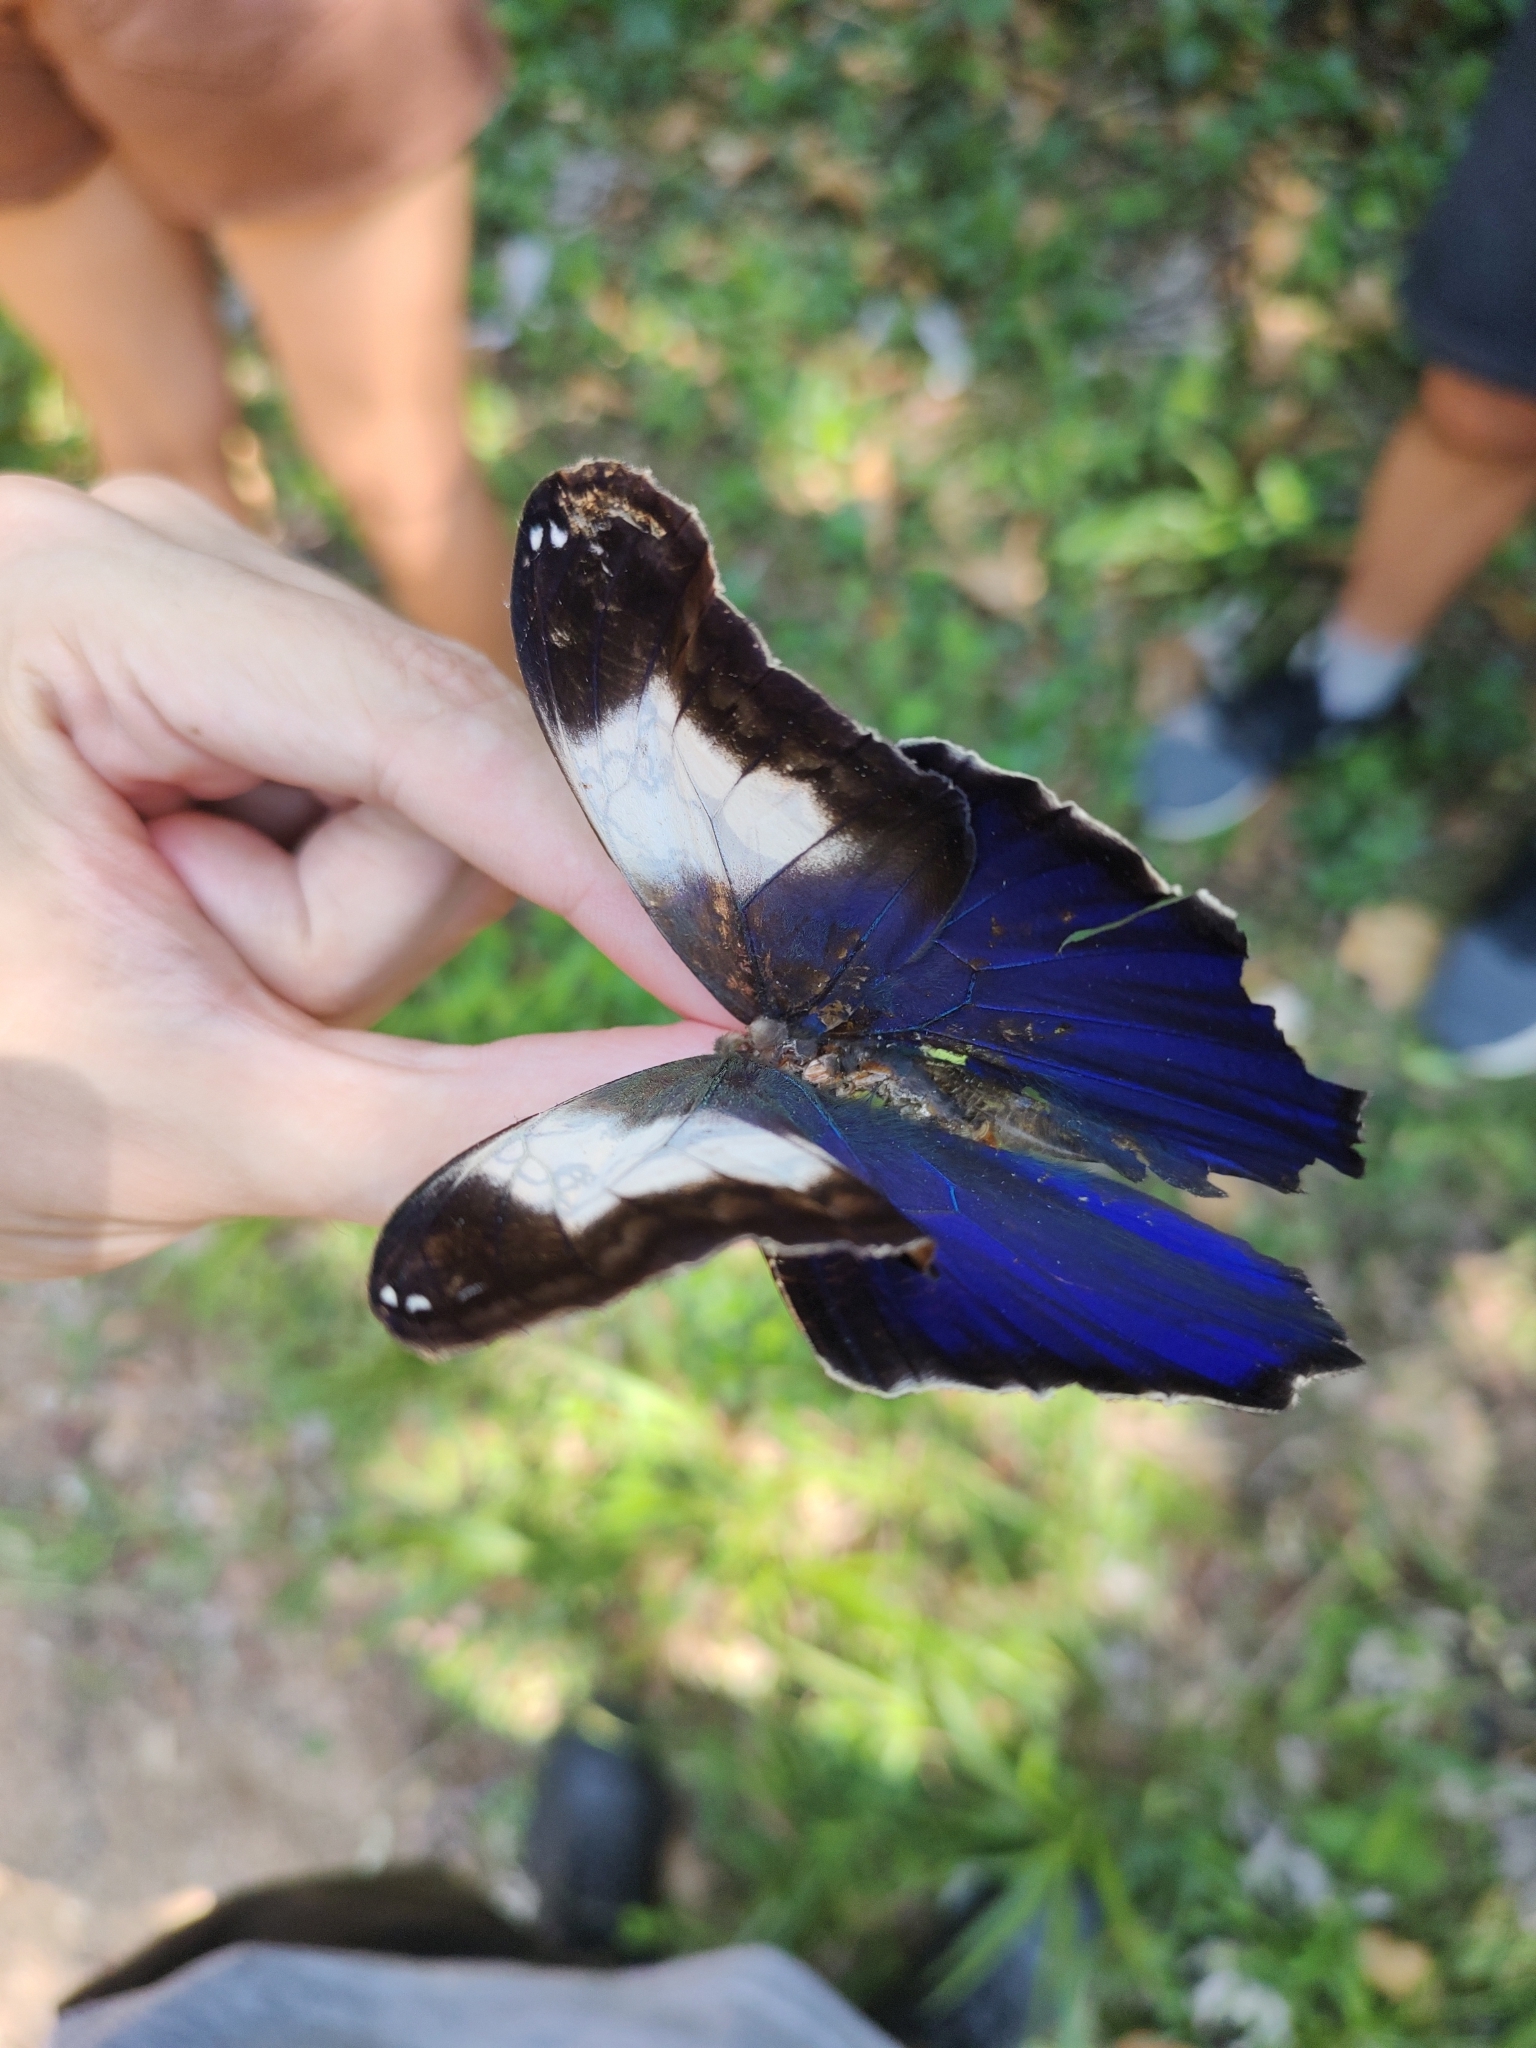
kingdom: Animalia
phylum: Arthropoda
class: Insecta
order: Lepidoptera
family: Nymphalidae
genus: Caligo
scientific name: Caligo martia
